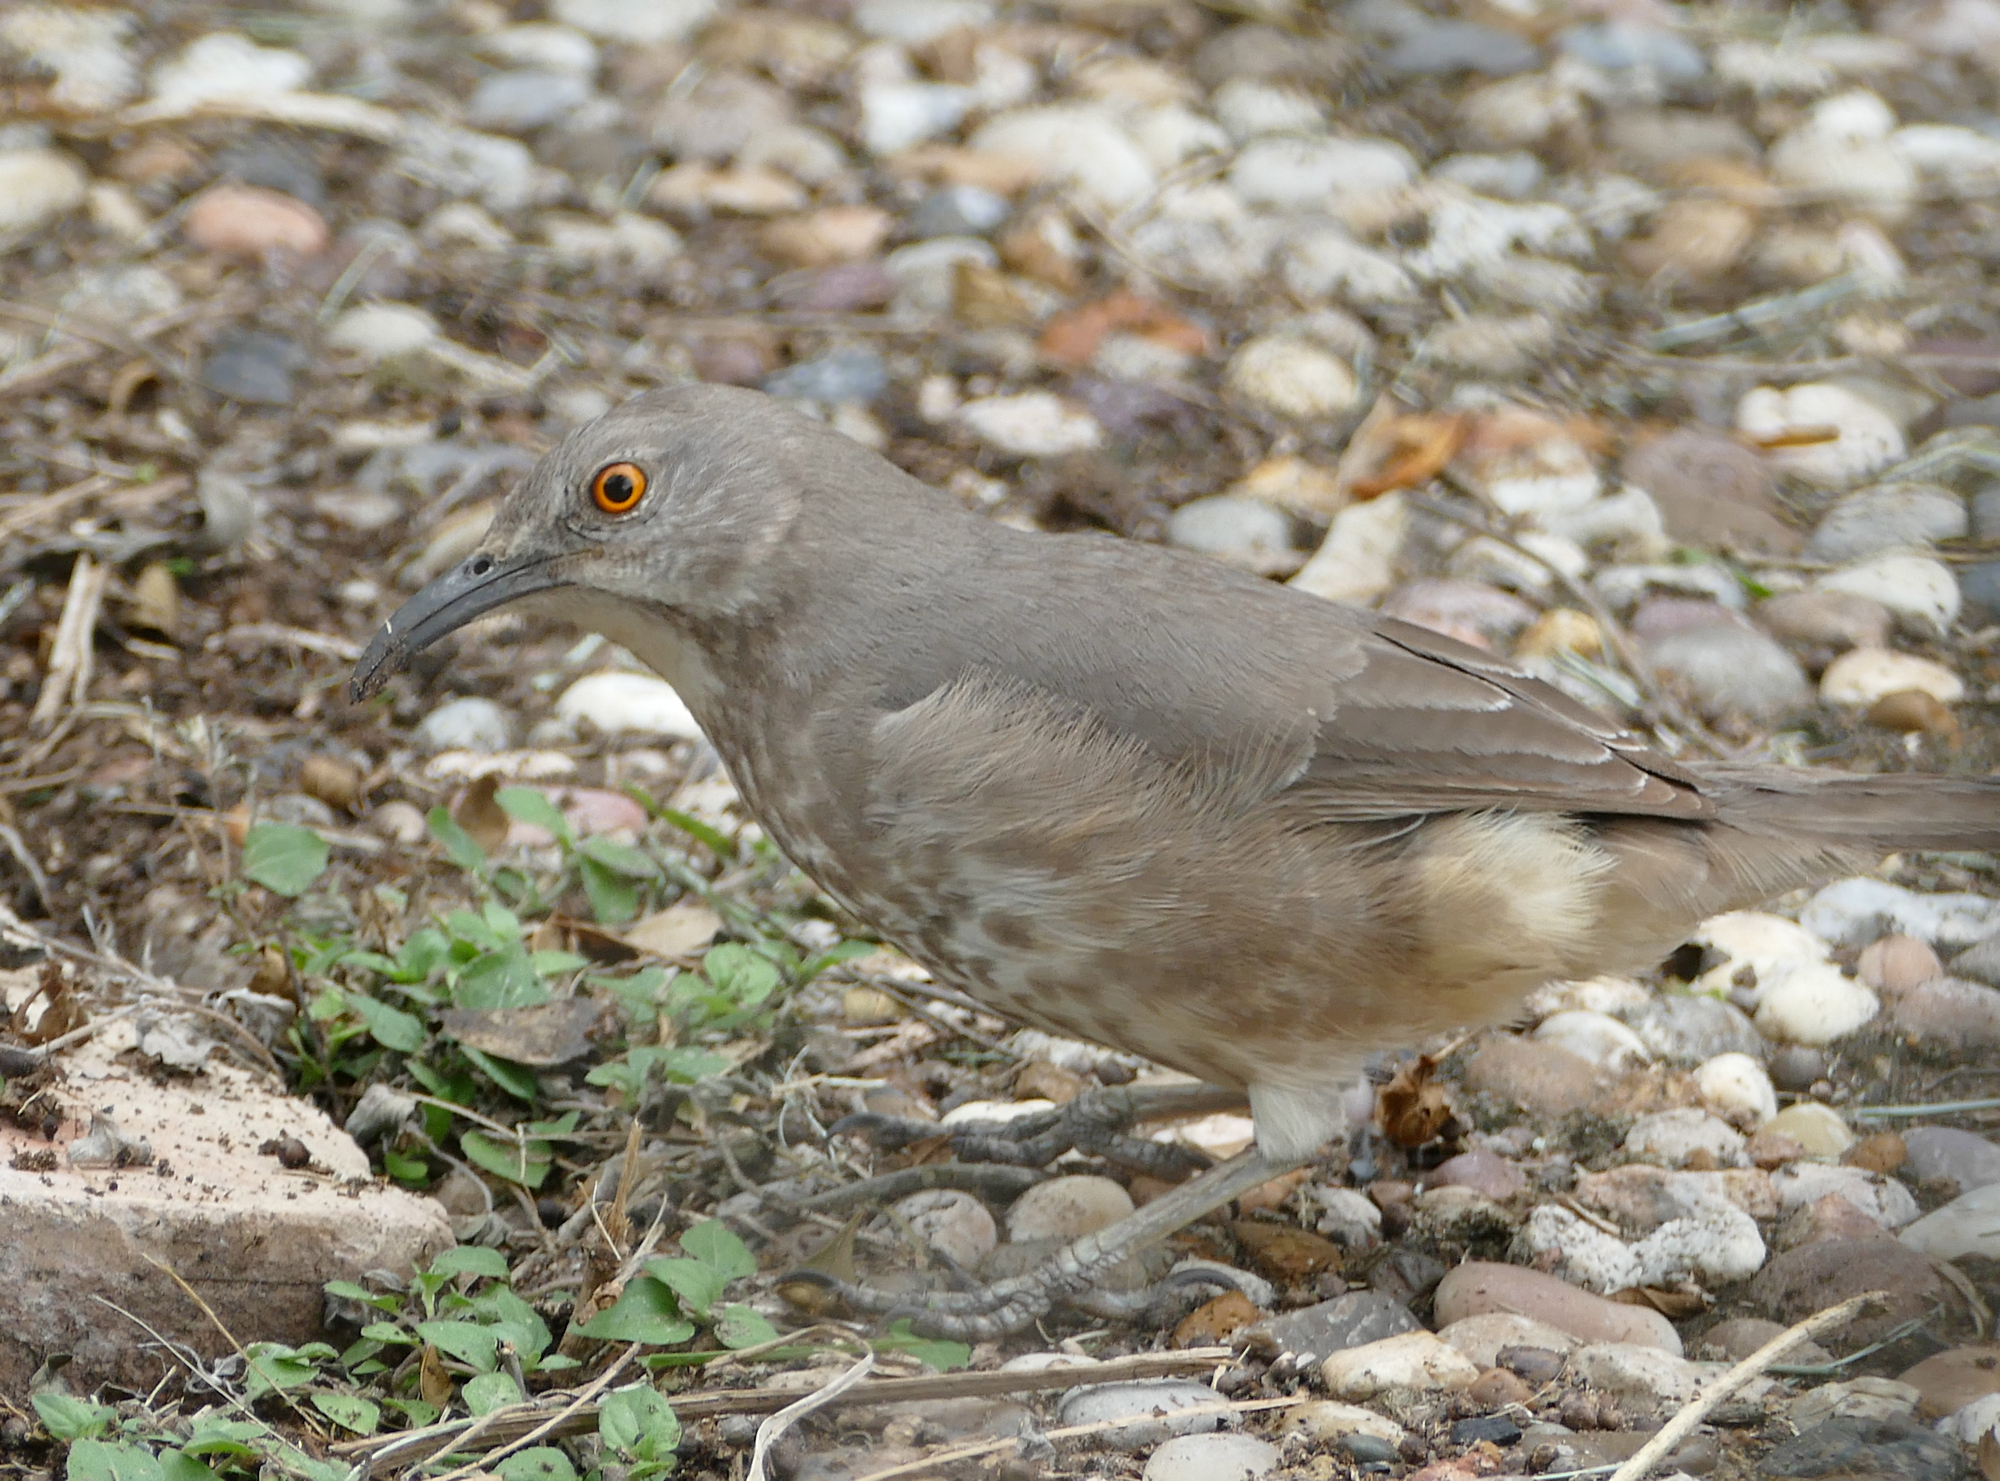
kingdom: Animalia
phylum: Chordata
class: Aves
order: Passeriformes
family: Mimidae
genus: Toxostoma
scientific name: Toxostoma curvirostre
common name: Curve-billed thrasher
